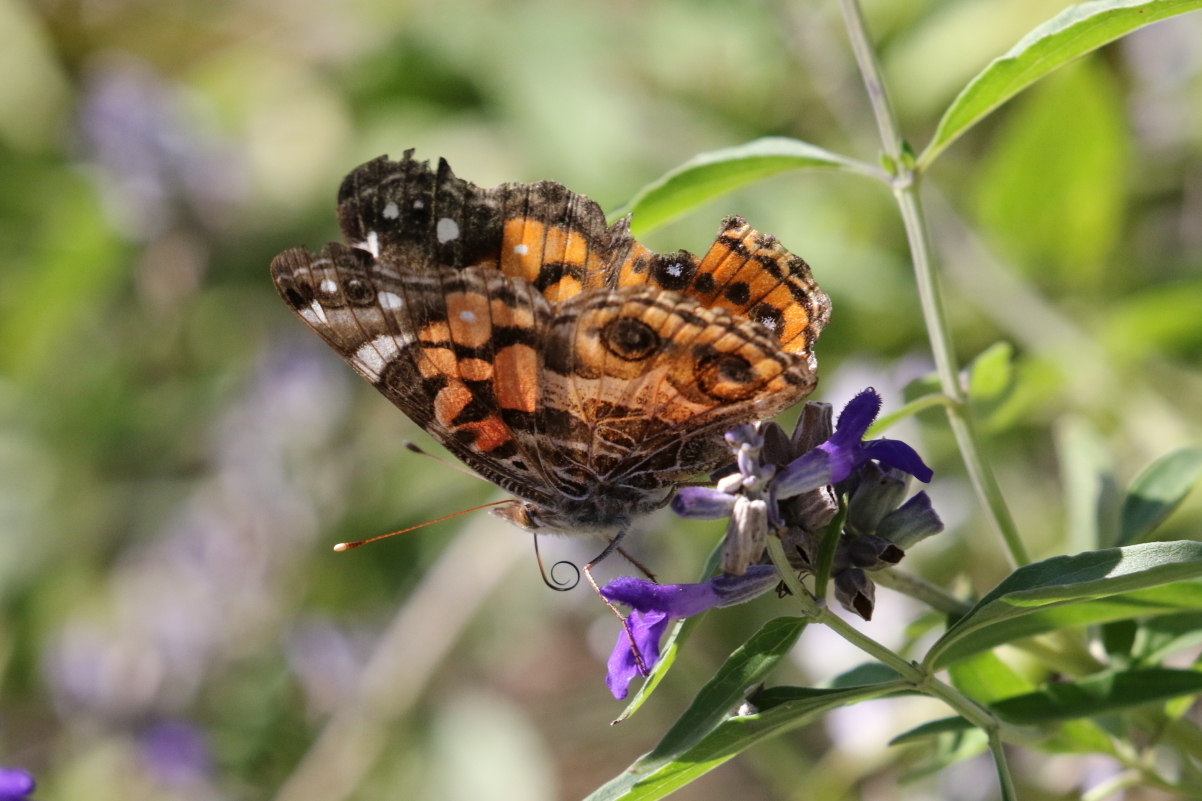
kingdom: Animalia
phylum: Arthropoda
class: Insecta
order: Lepidoptera
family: Nymphalidae
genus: Vanessa
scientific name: Vanessa virginiensis
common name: American lady
